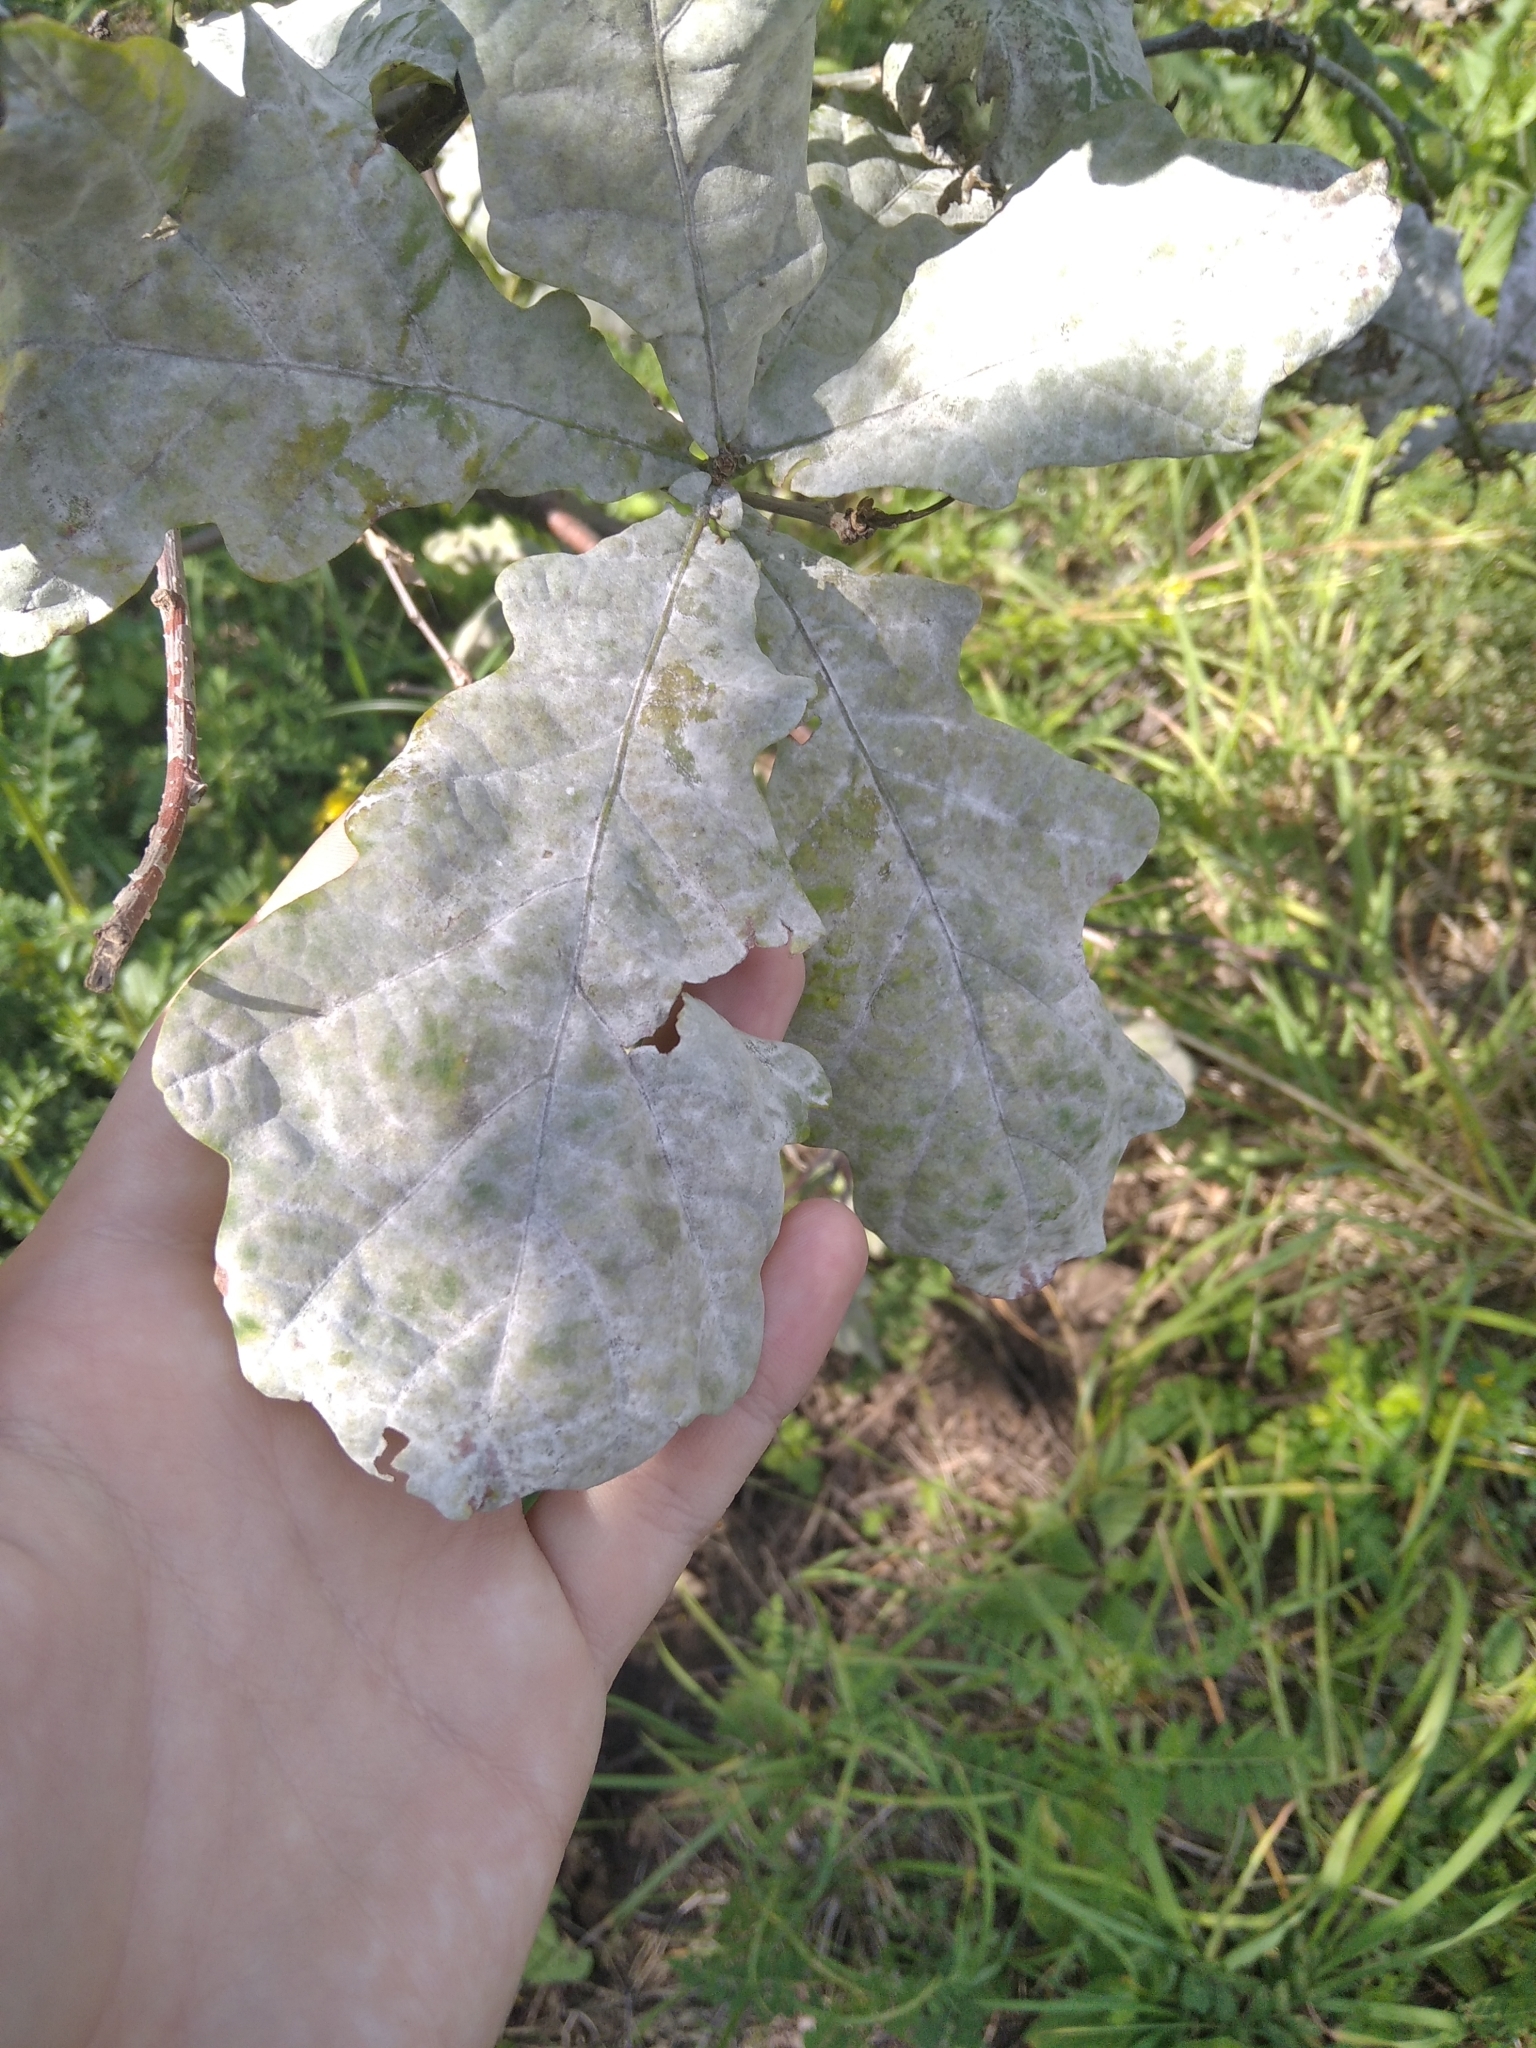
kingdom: Plantae
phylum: Tracheophyta
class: Magnoliopsida
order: Fagales
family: Fagaceae
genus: Quercus
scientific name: Quercus robur
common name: Pedunculate oak
